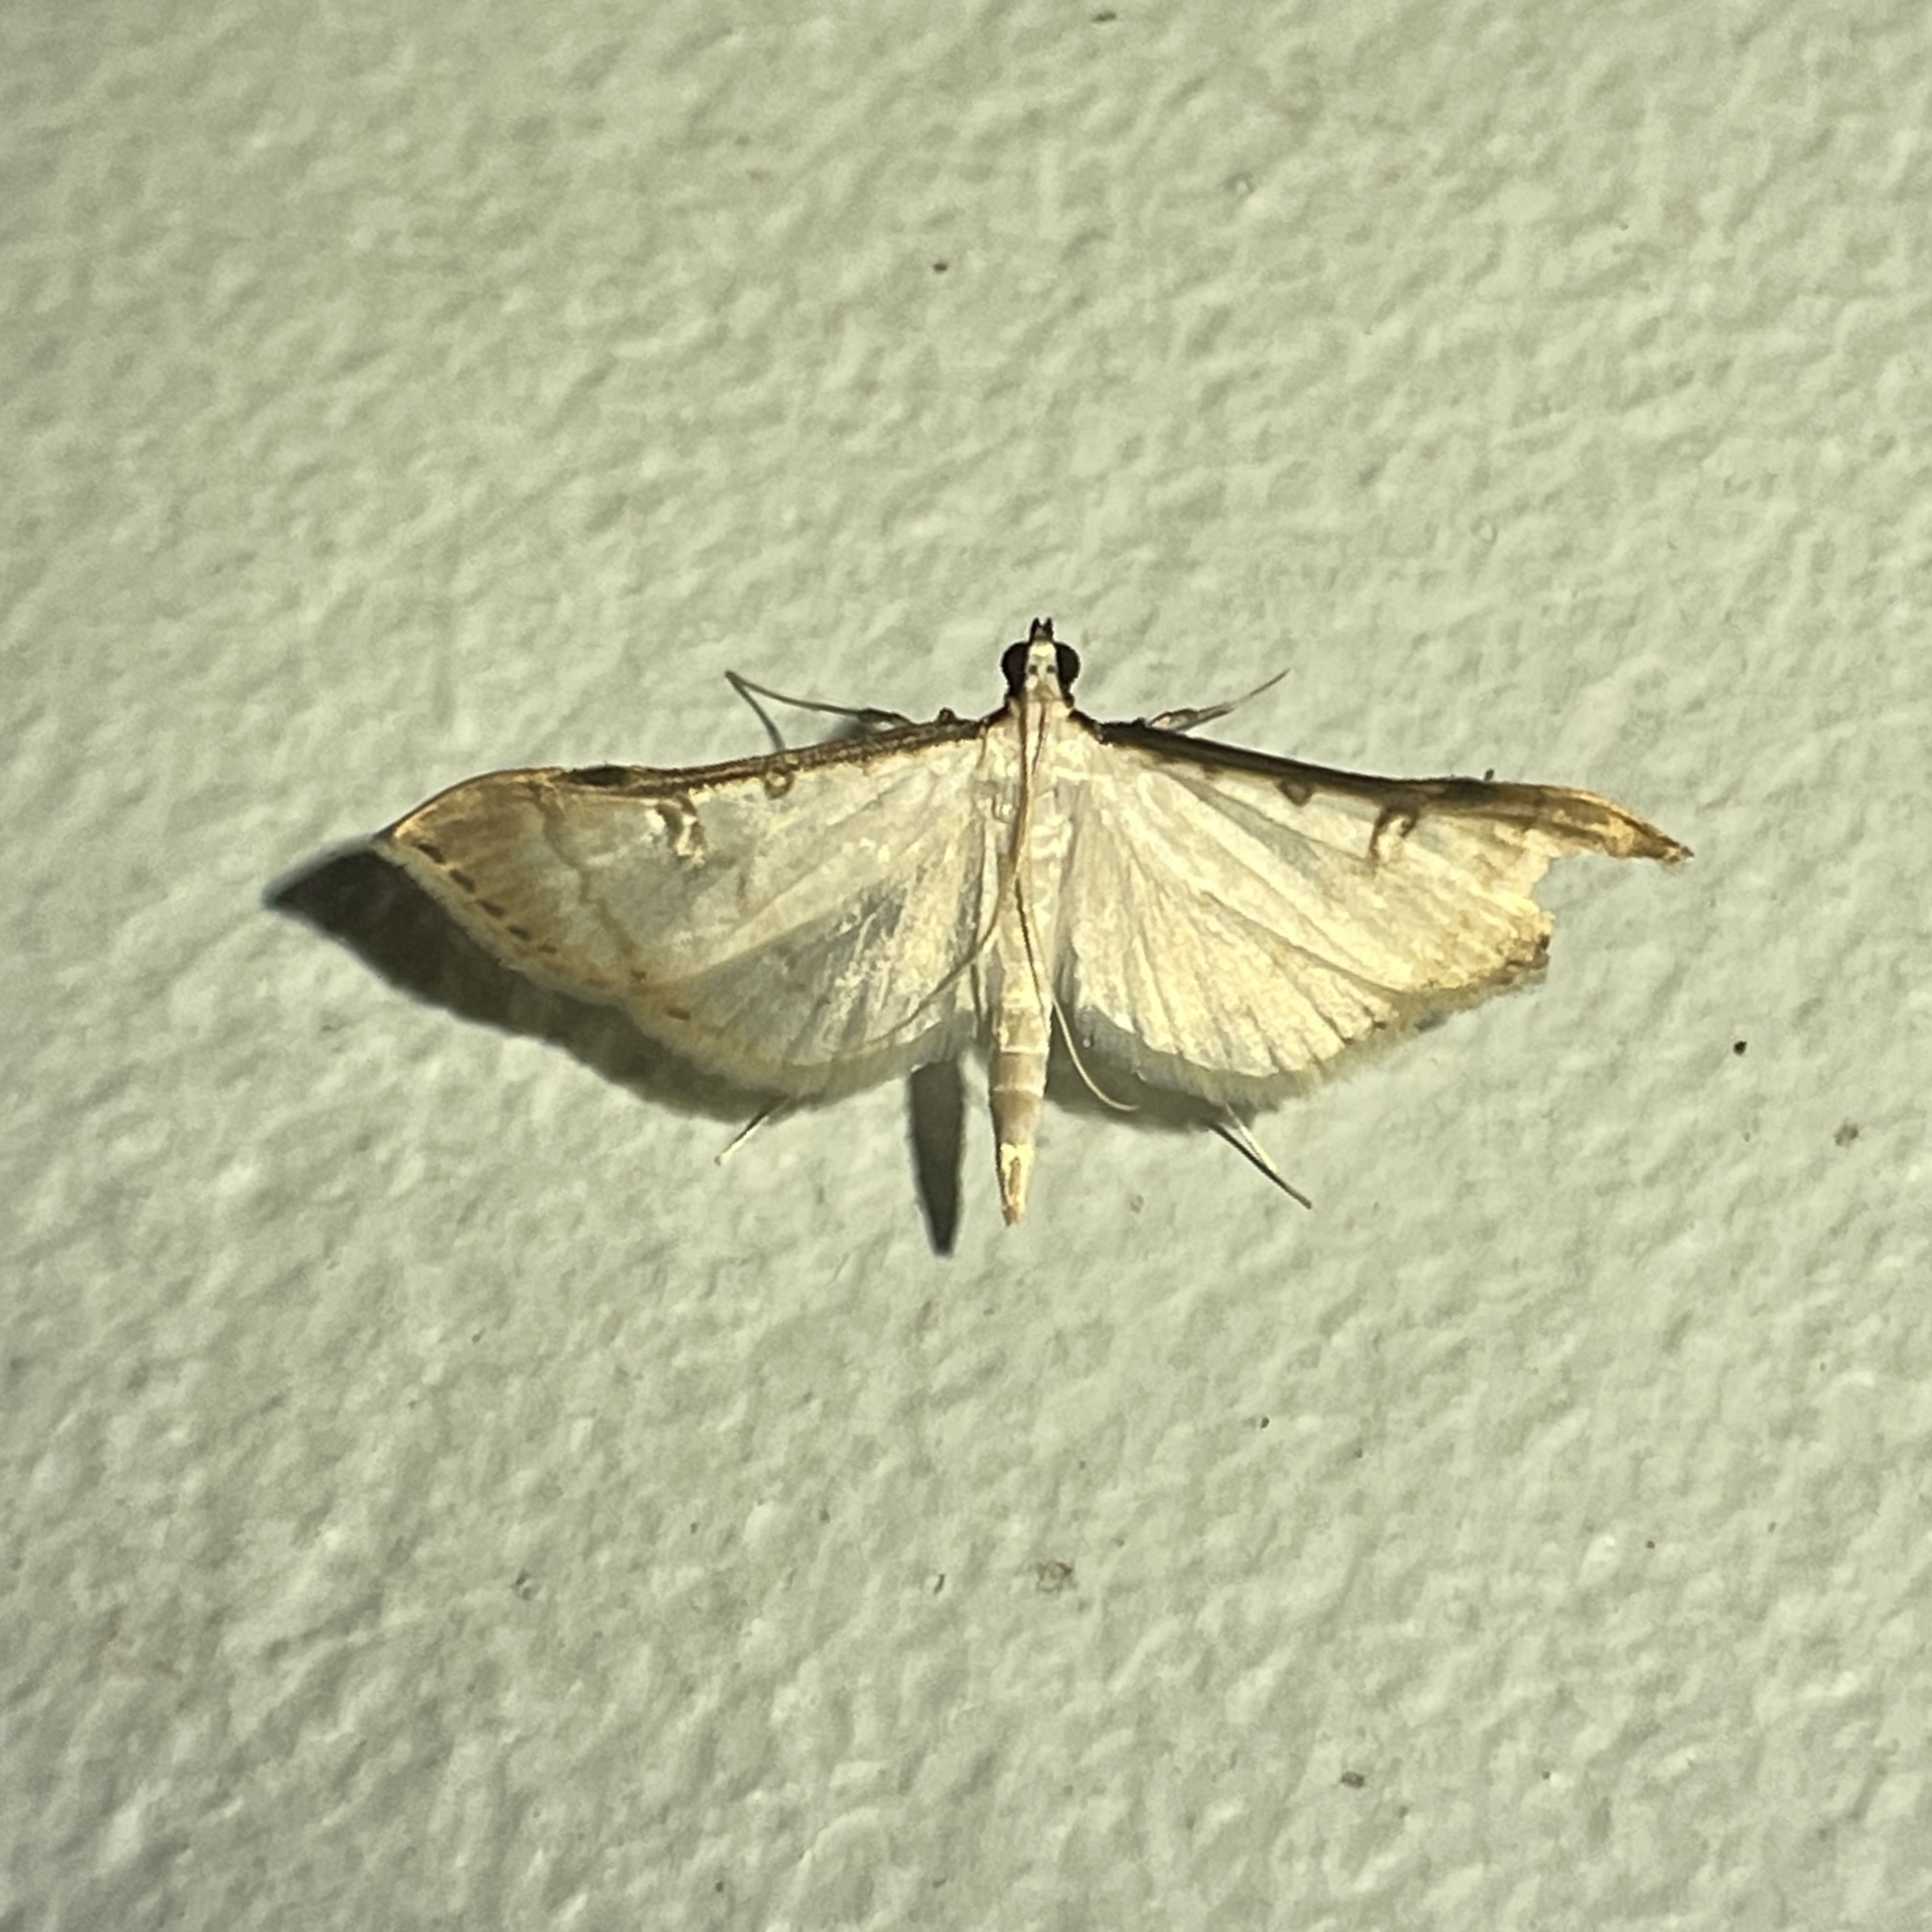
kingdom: Animalia
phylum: Arthropoda
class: Insecta
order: Lepidoptera
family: Crambidae
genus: Stenia
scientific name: Stenia colubralis
